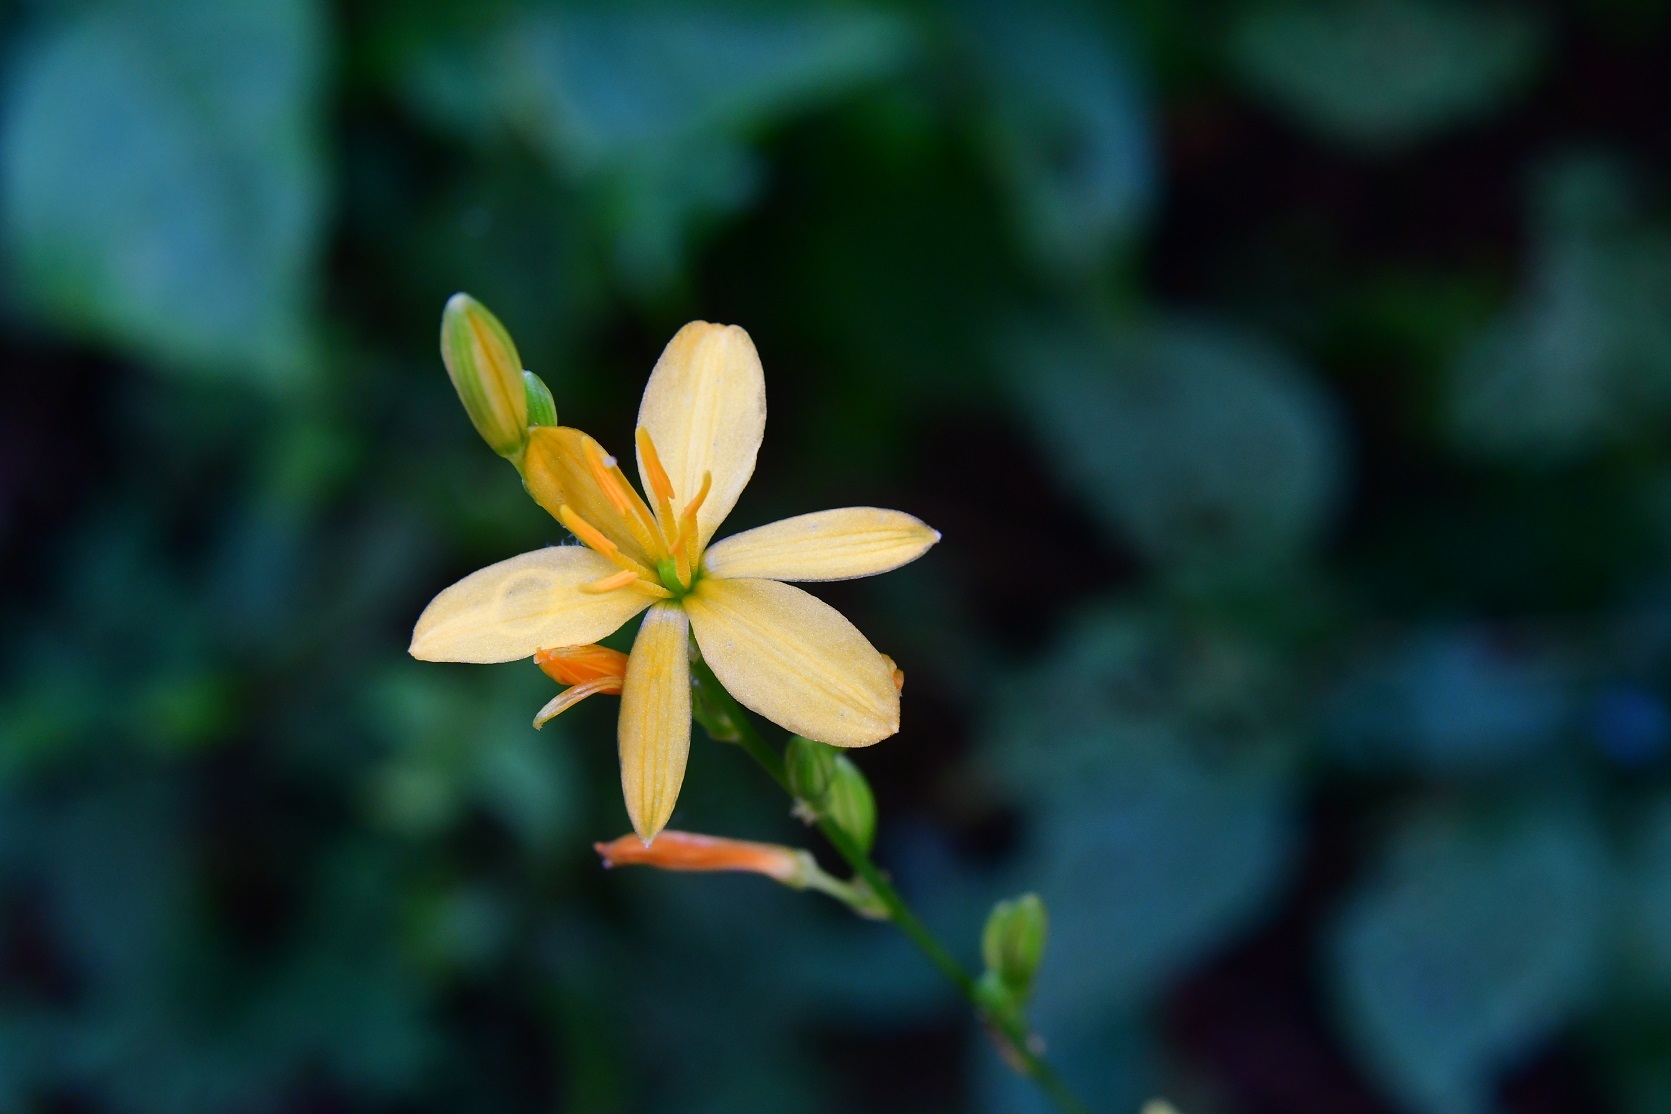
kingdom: Plantae
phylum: Tracheophyta
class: Liliopsida
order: Asparagales
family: Asparagaceae
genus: Echeandia
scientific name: Echeandia breedlovei
